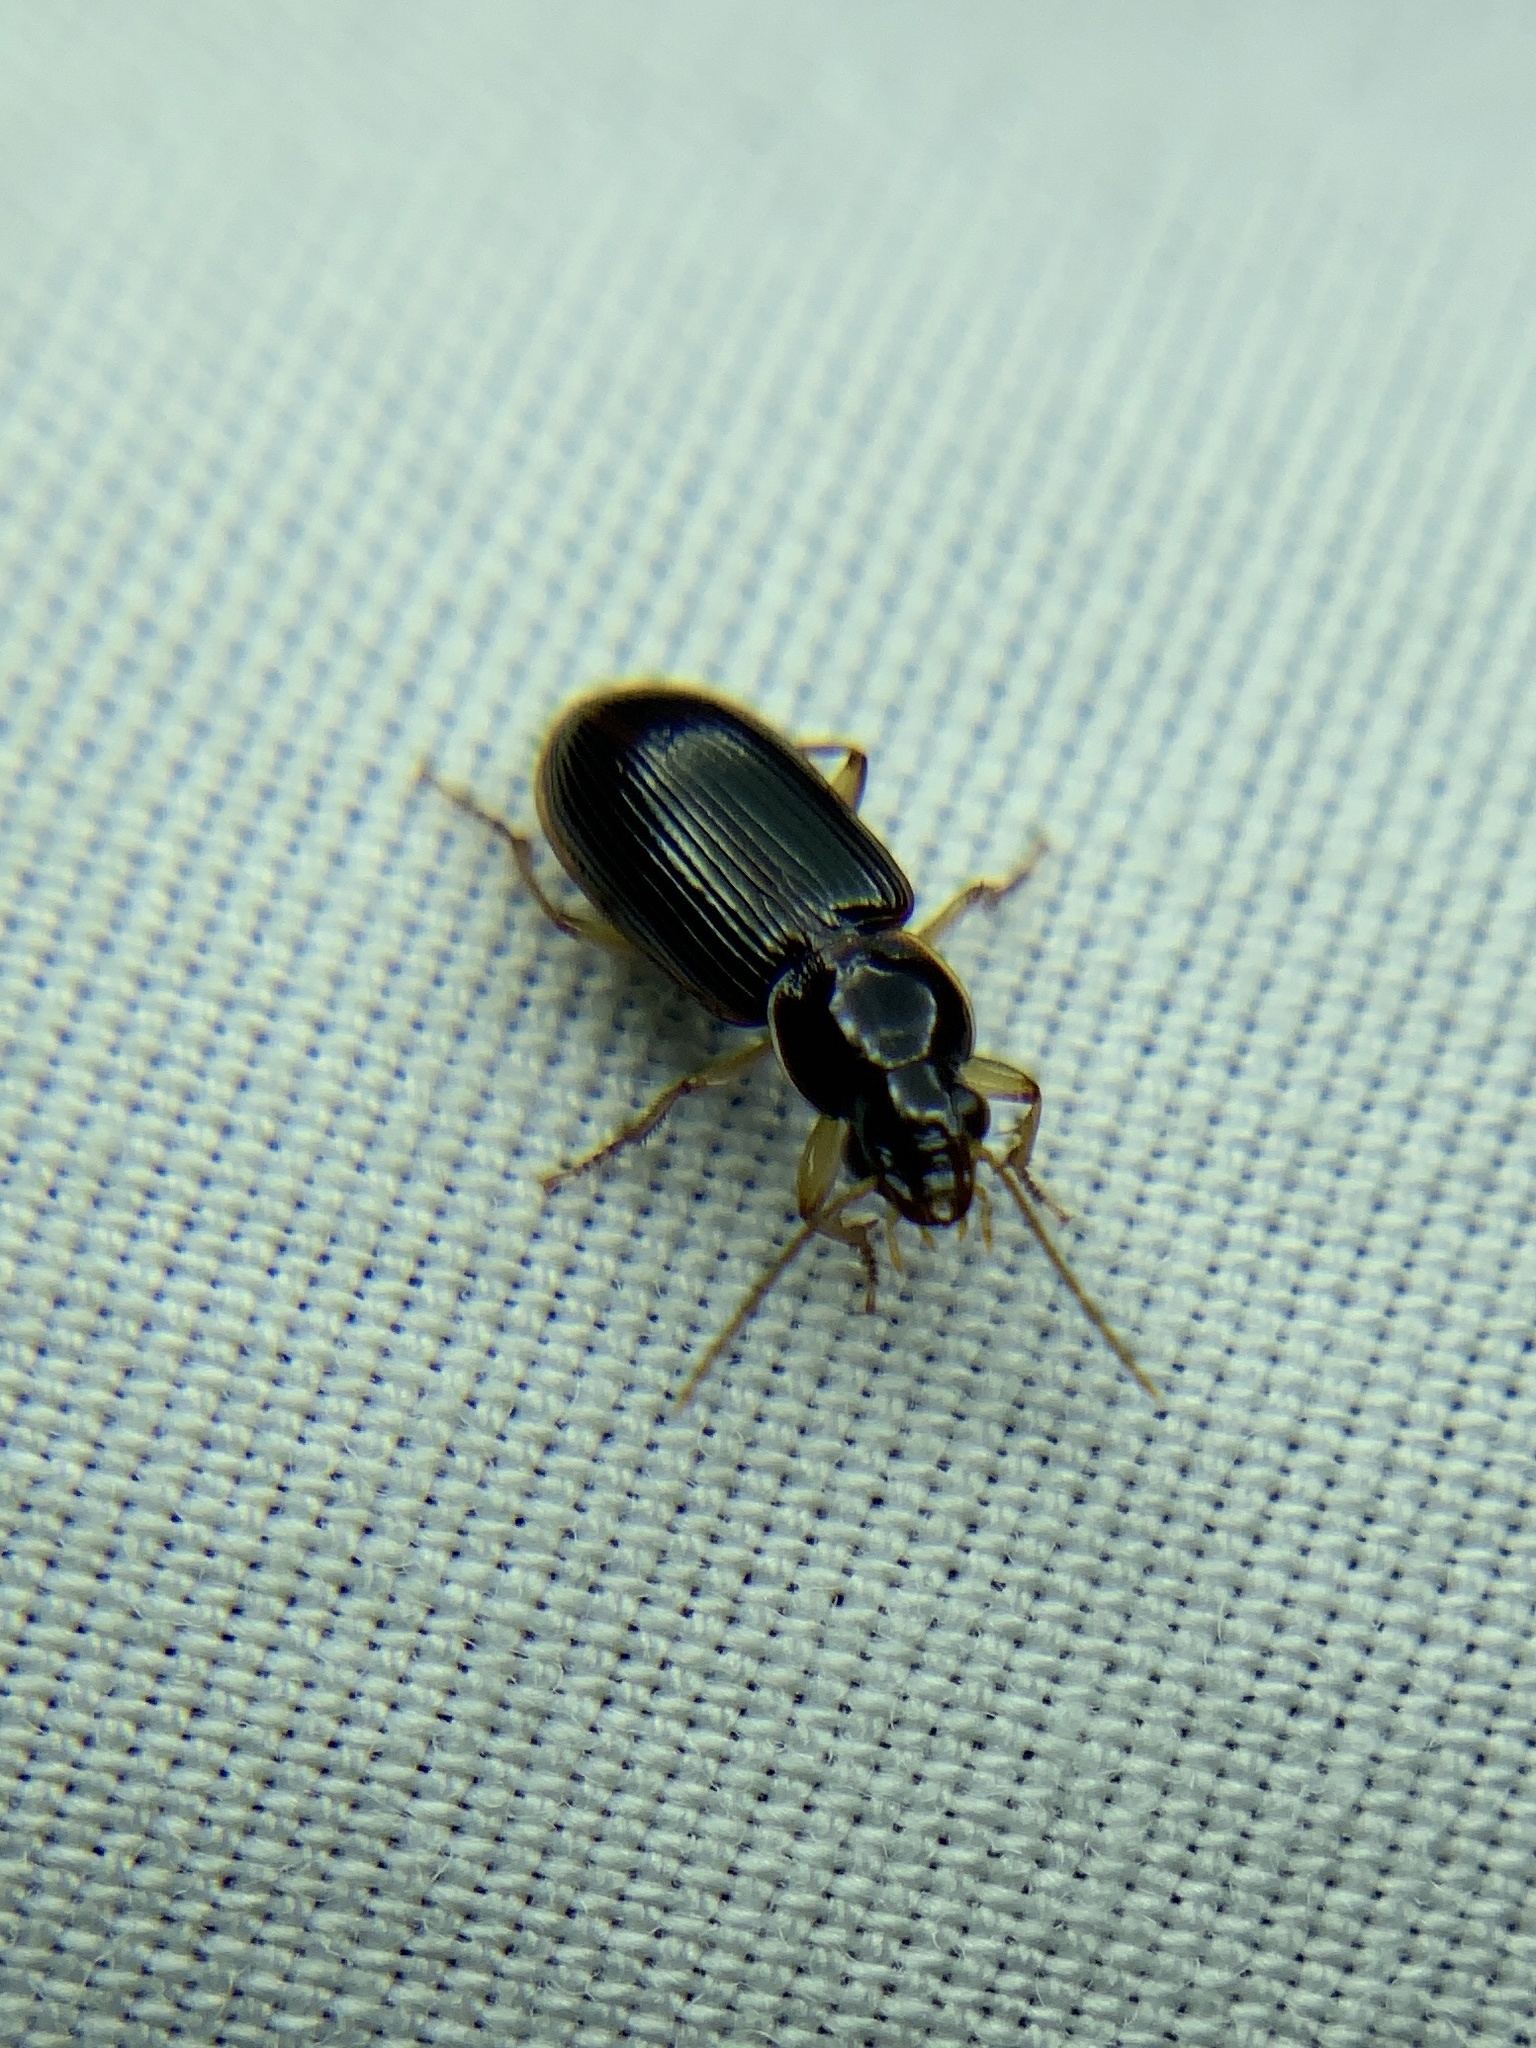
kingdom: Animalia
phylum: Arthropoda
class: Insecta
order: Coleoptera
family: Carabidae
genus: Stenolophus
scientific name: Stenolophus ochropezus
